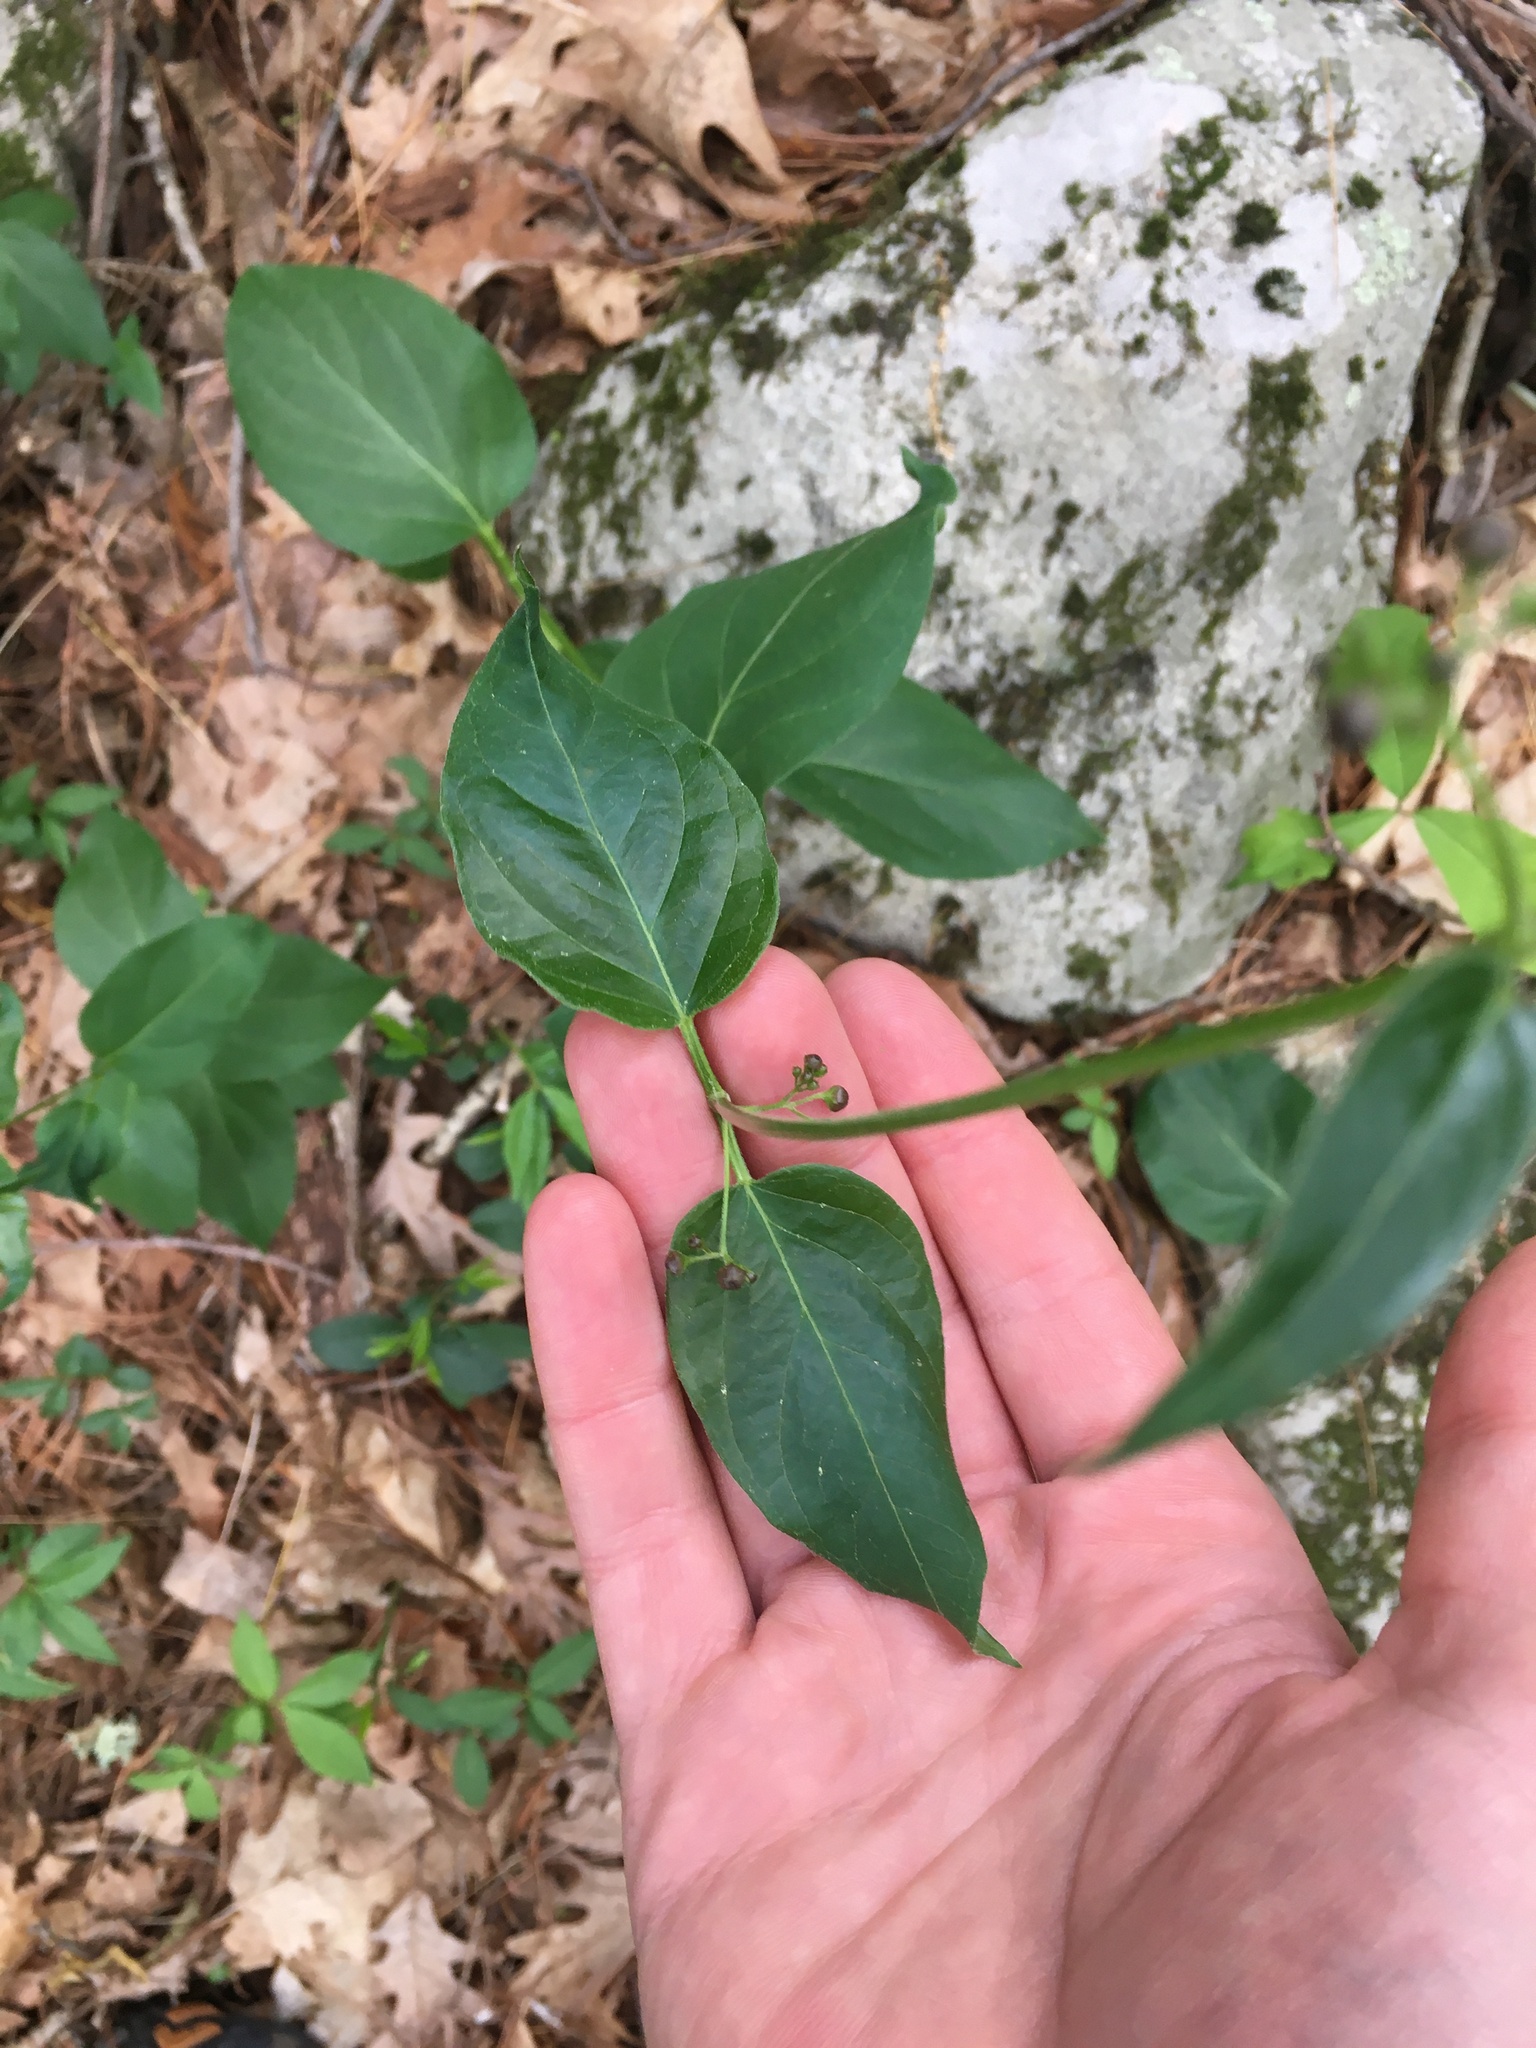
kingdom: Plantae
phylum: Tracheophyta
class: Magnoliopsida
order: Gentianales
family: Apocynaceae
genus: Vincetoxicum
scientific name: Vincetoxicum nigrum
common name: Black swallow-wort
